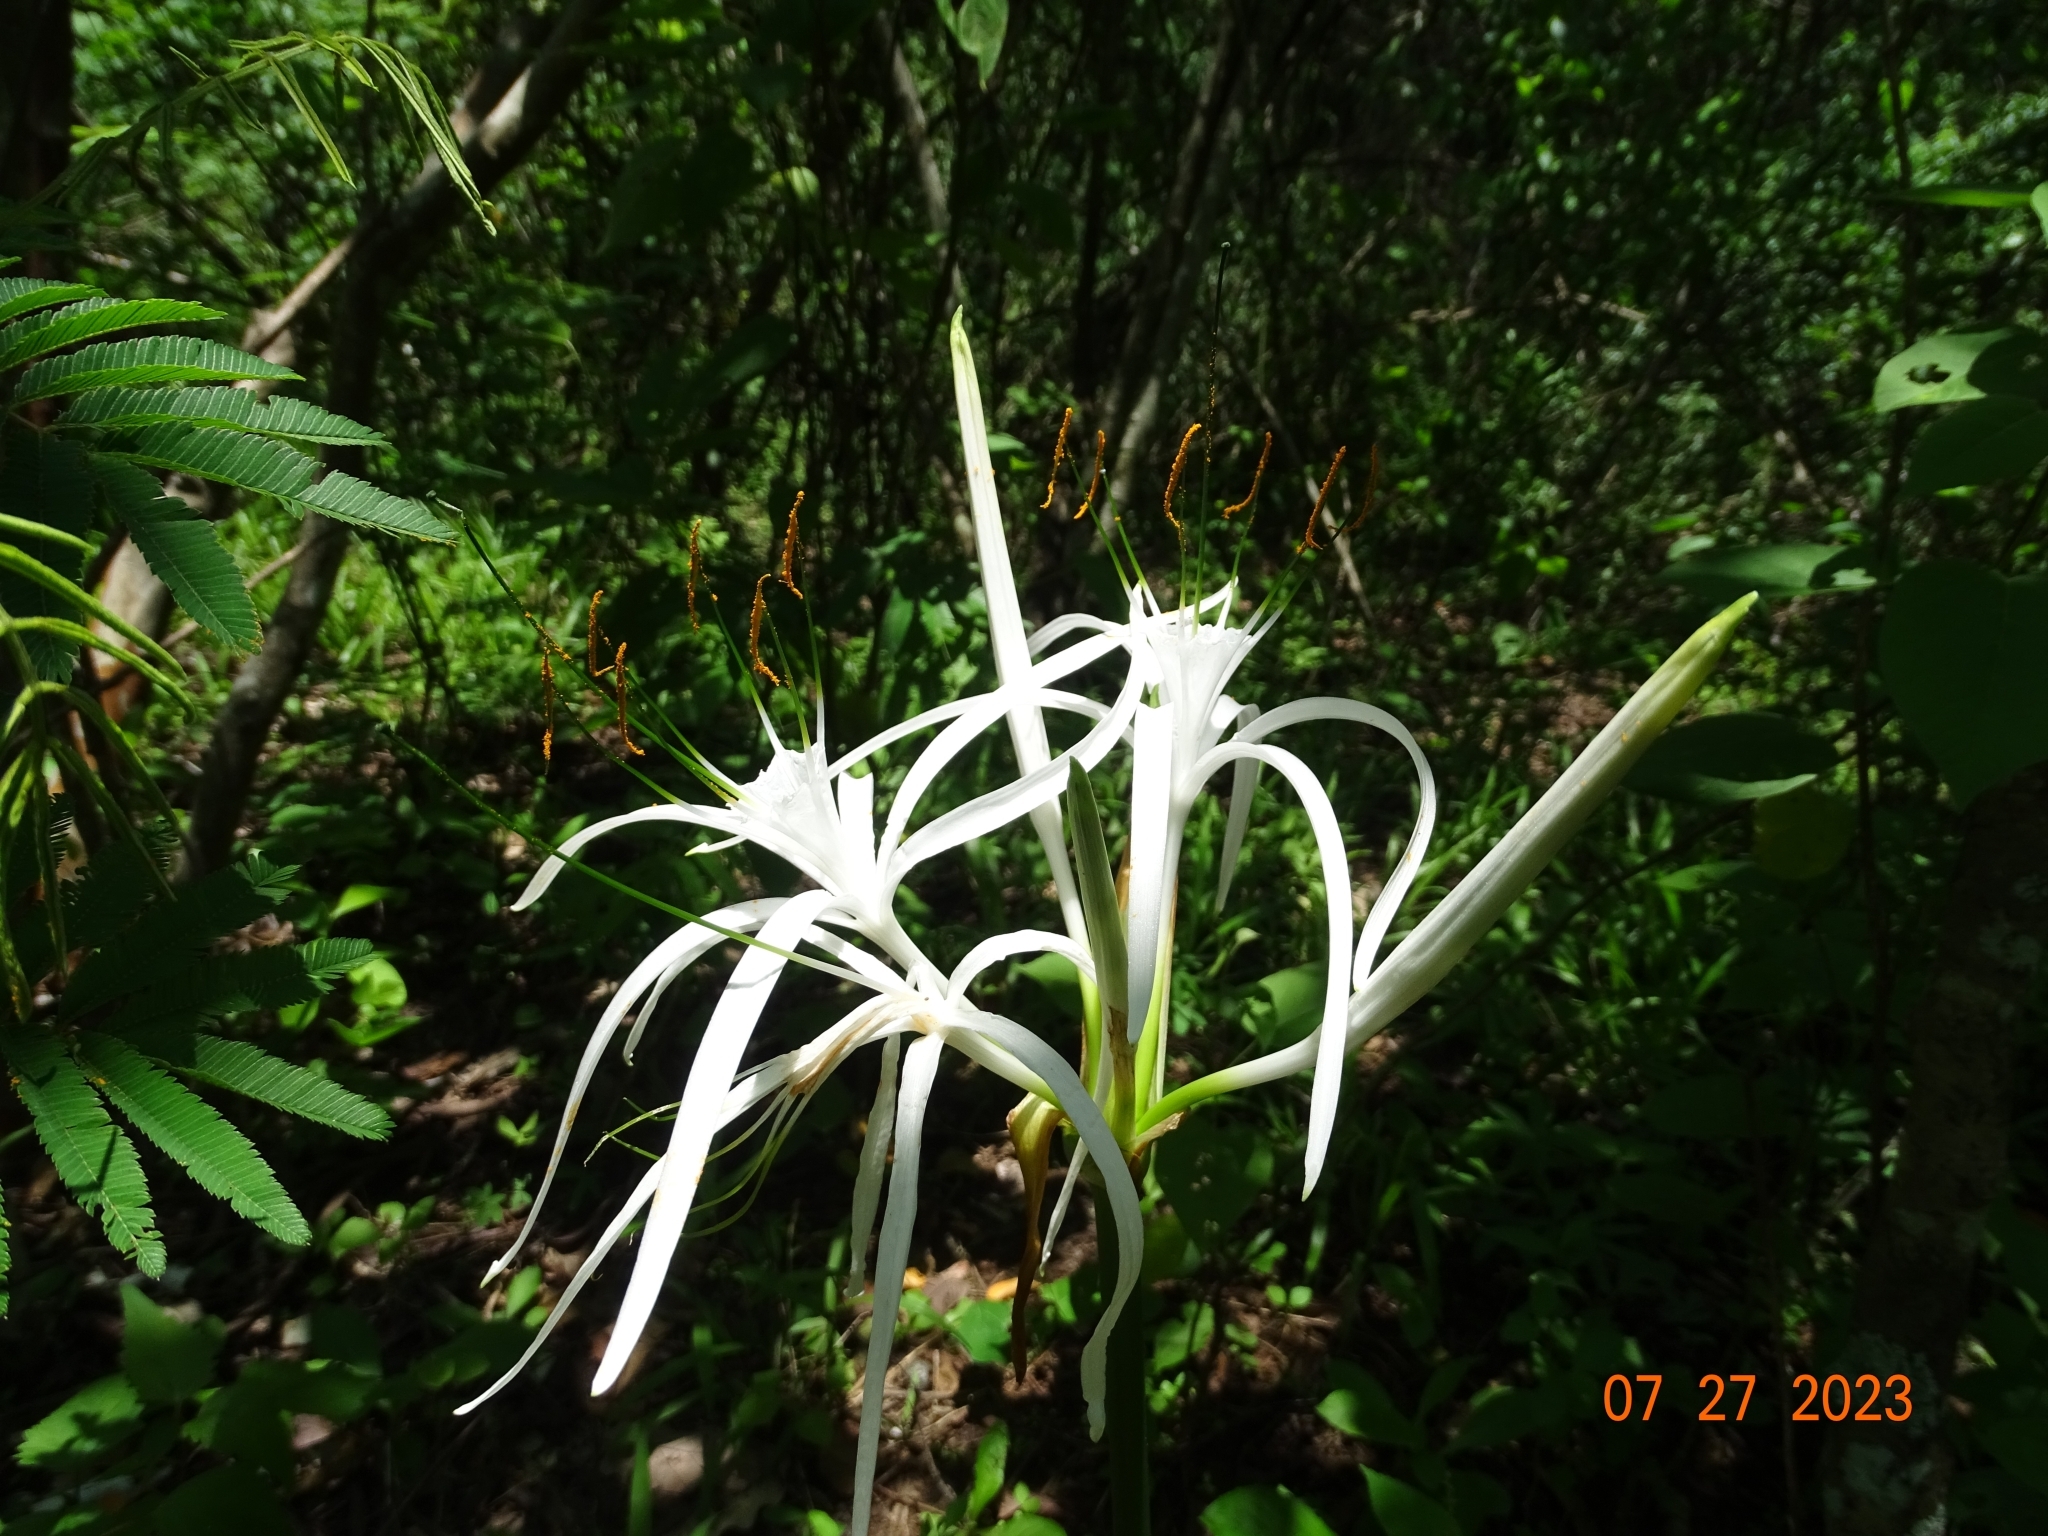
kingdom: Plantae
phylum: Tracheophyta
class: Liliopsida
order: Asparagales
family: Amaryllidaceae
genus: Hymenocallis
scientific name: Hymenocallis littoralis
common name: Beach spiderlily
